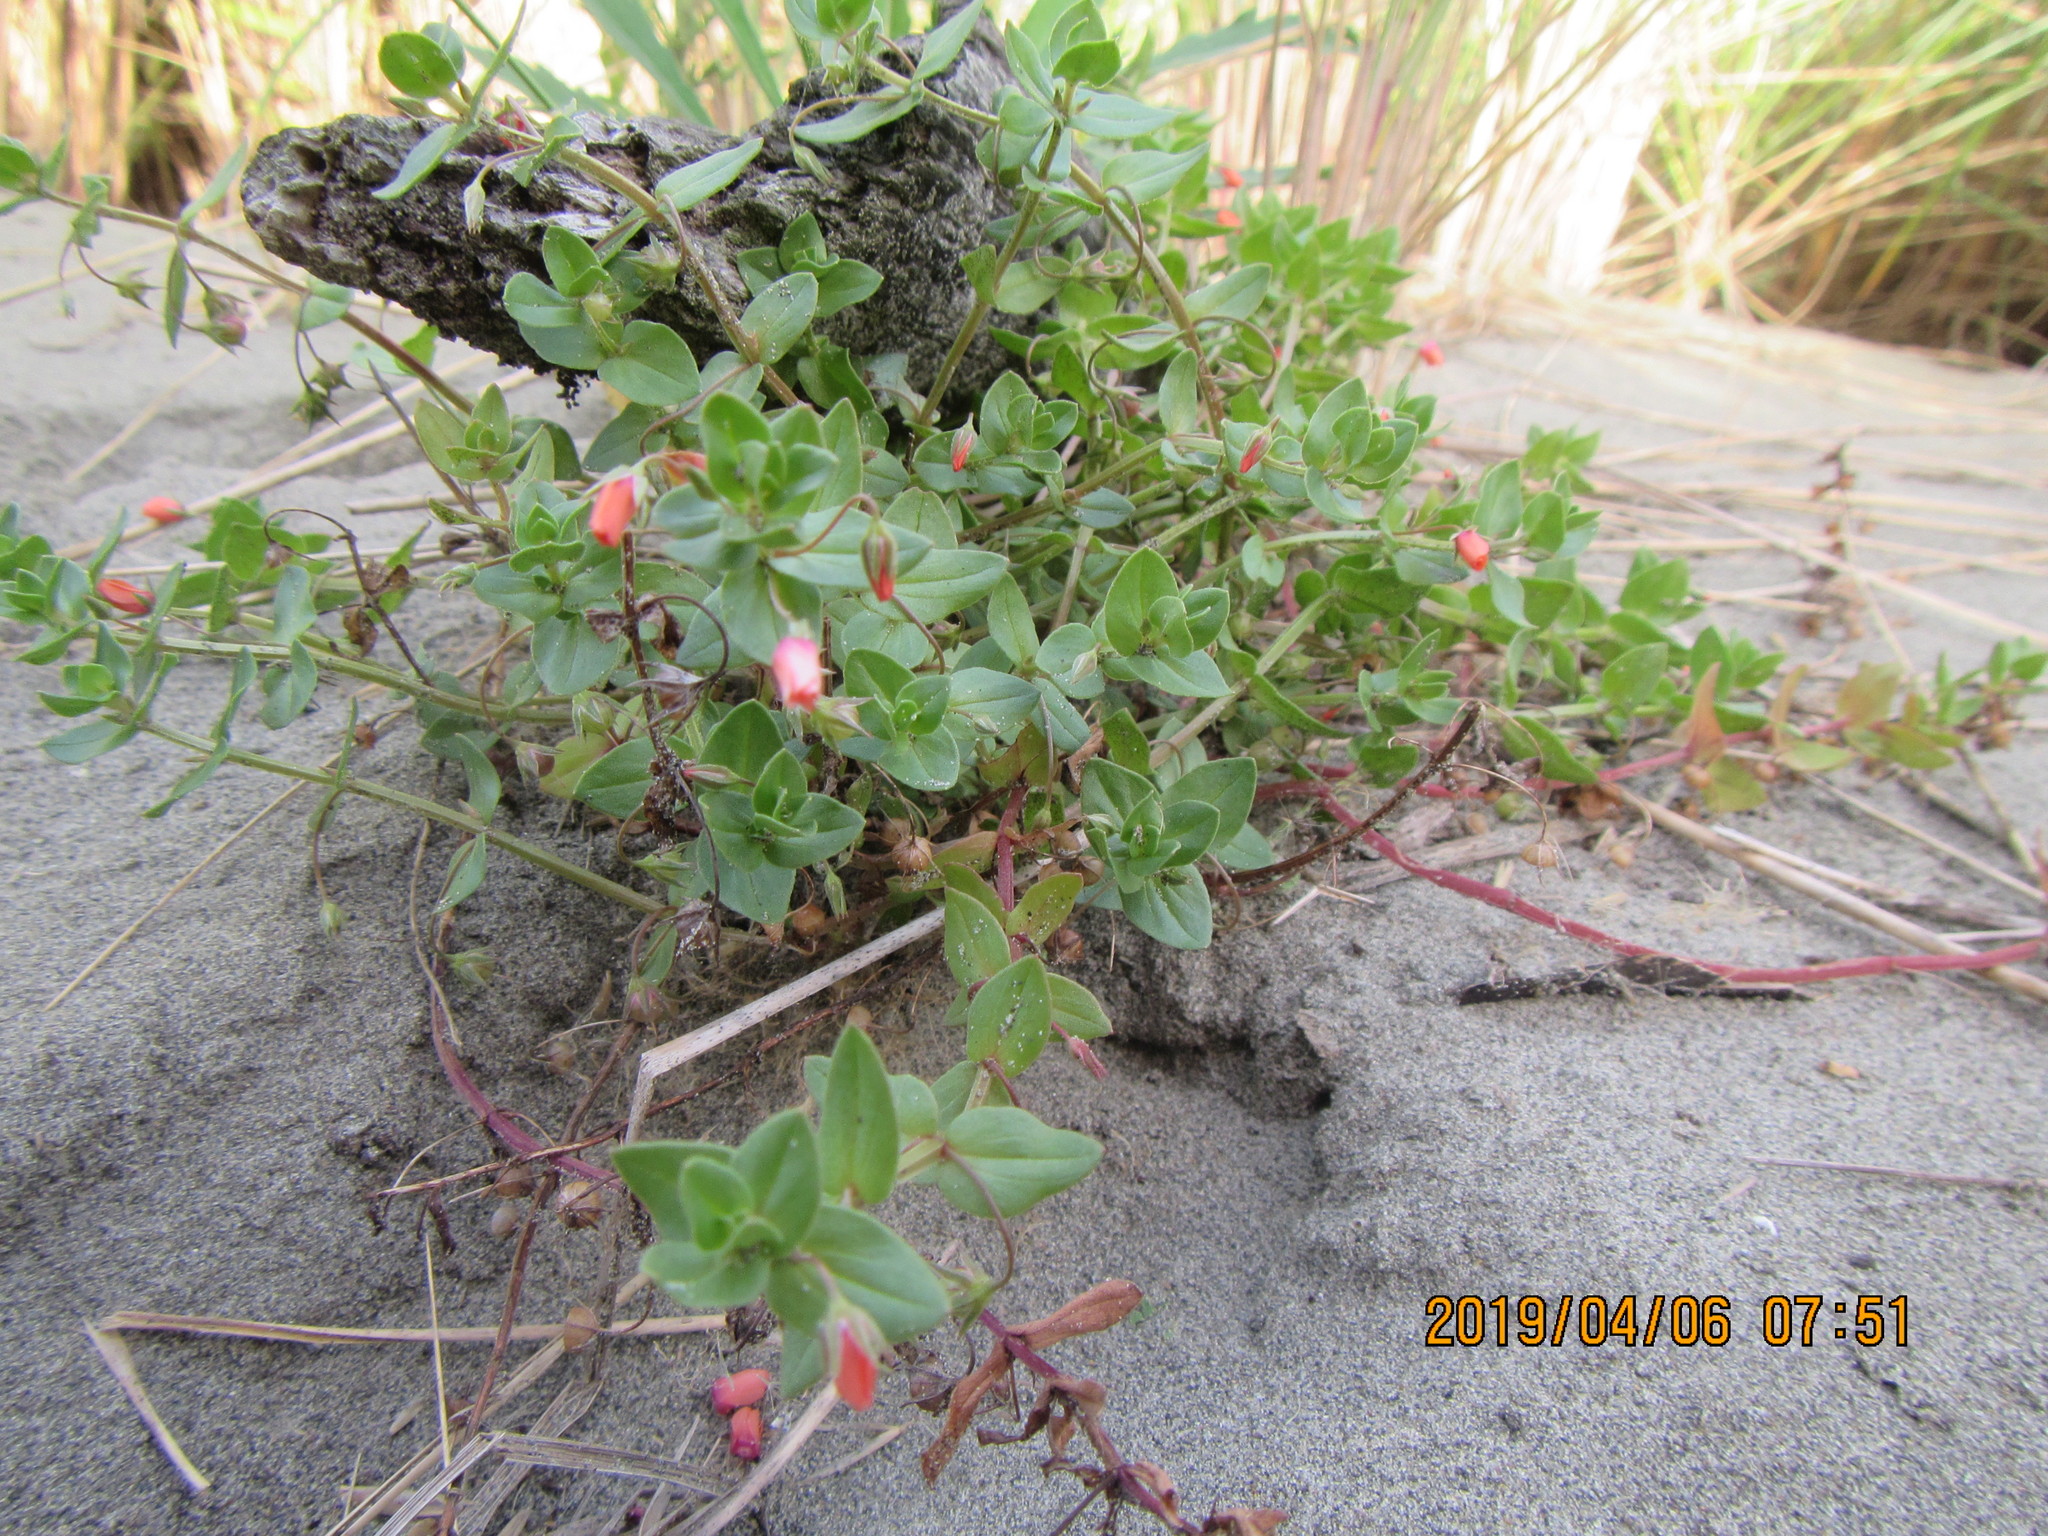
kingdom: Plantae
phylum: Tracheophyta
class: Magnoliopsida
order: Ericales
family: Primulaceae
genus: Lysimachia
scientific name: Lysimachia arvensis
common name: Scarlet pimpernel
